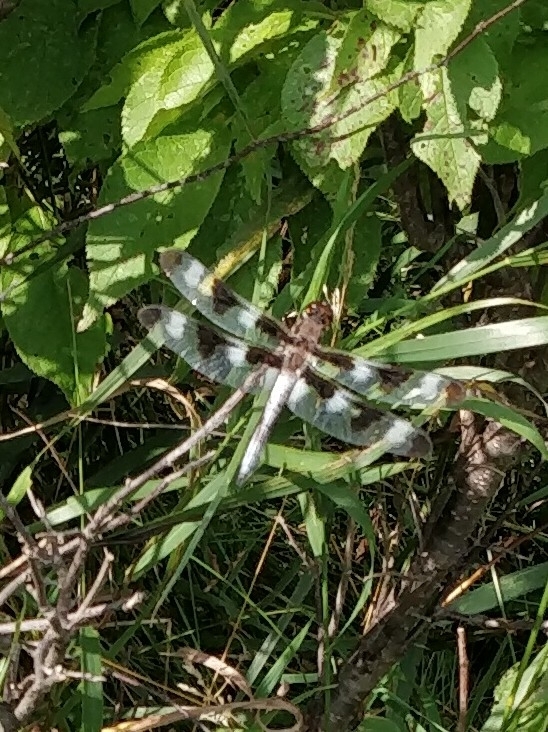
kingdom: Animalia
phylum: Arthropoda
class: Insecta
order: Odonata
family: Libellulidae
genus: Libellula
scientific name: Libellula pulchella
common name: Twelve-spotted skimmer
